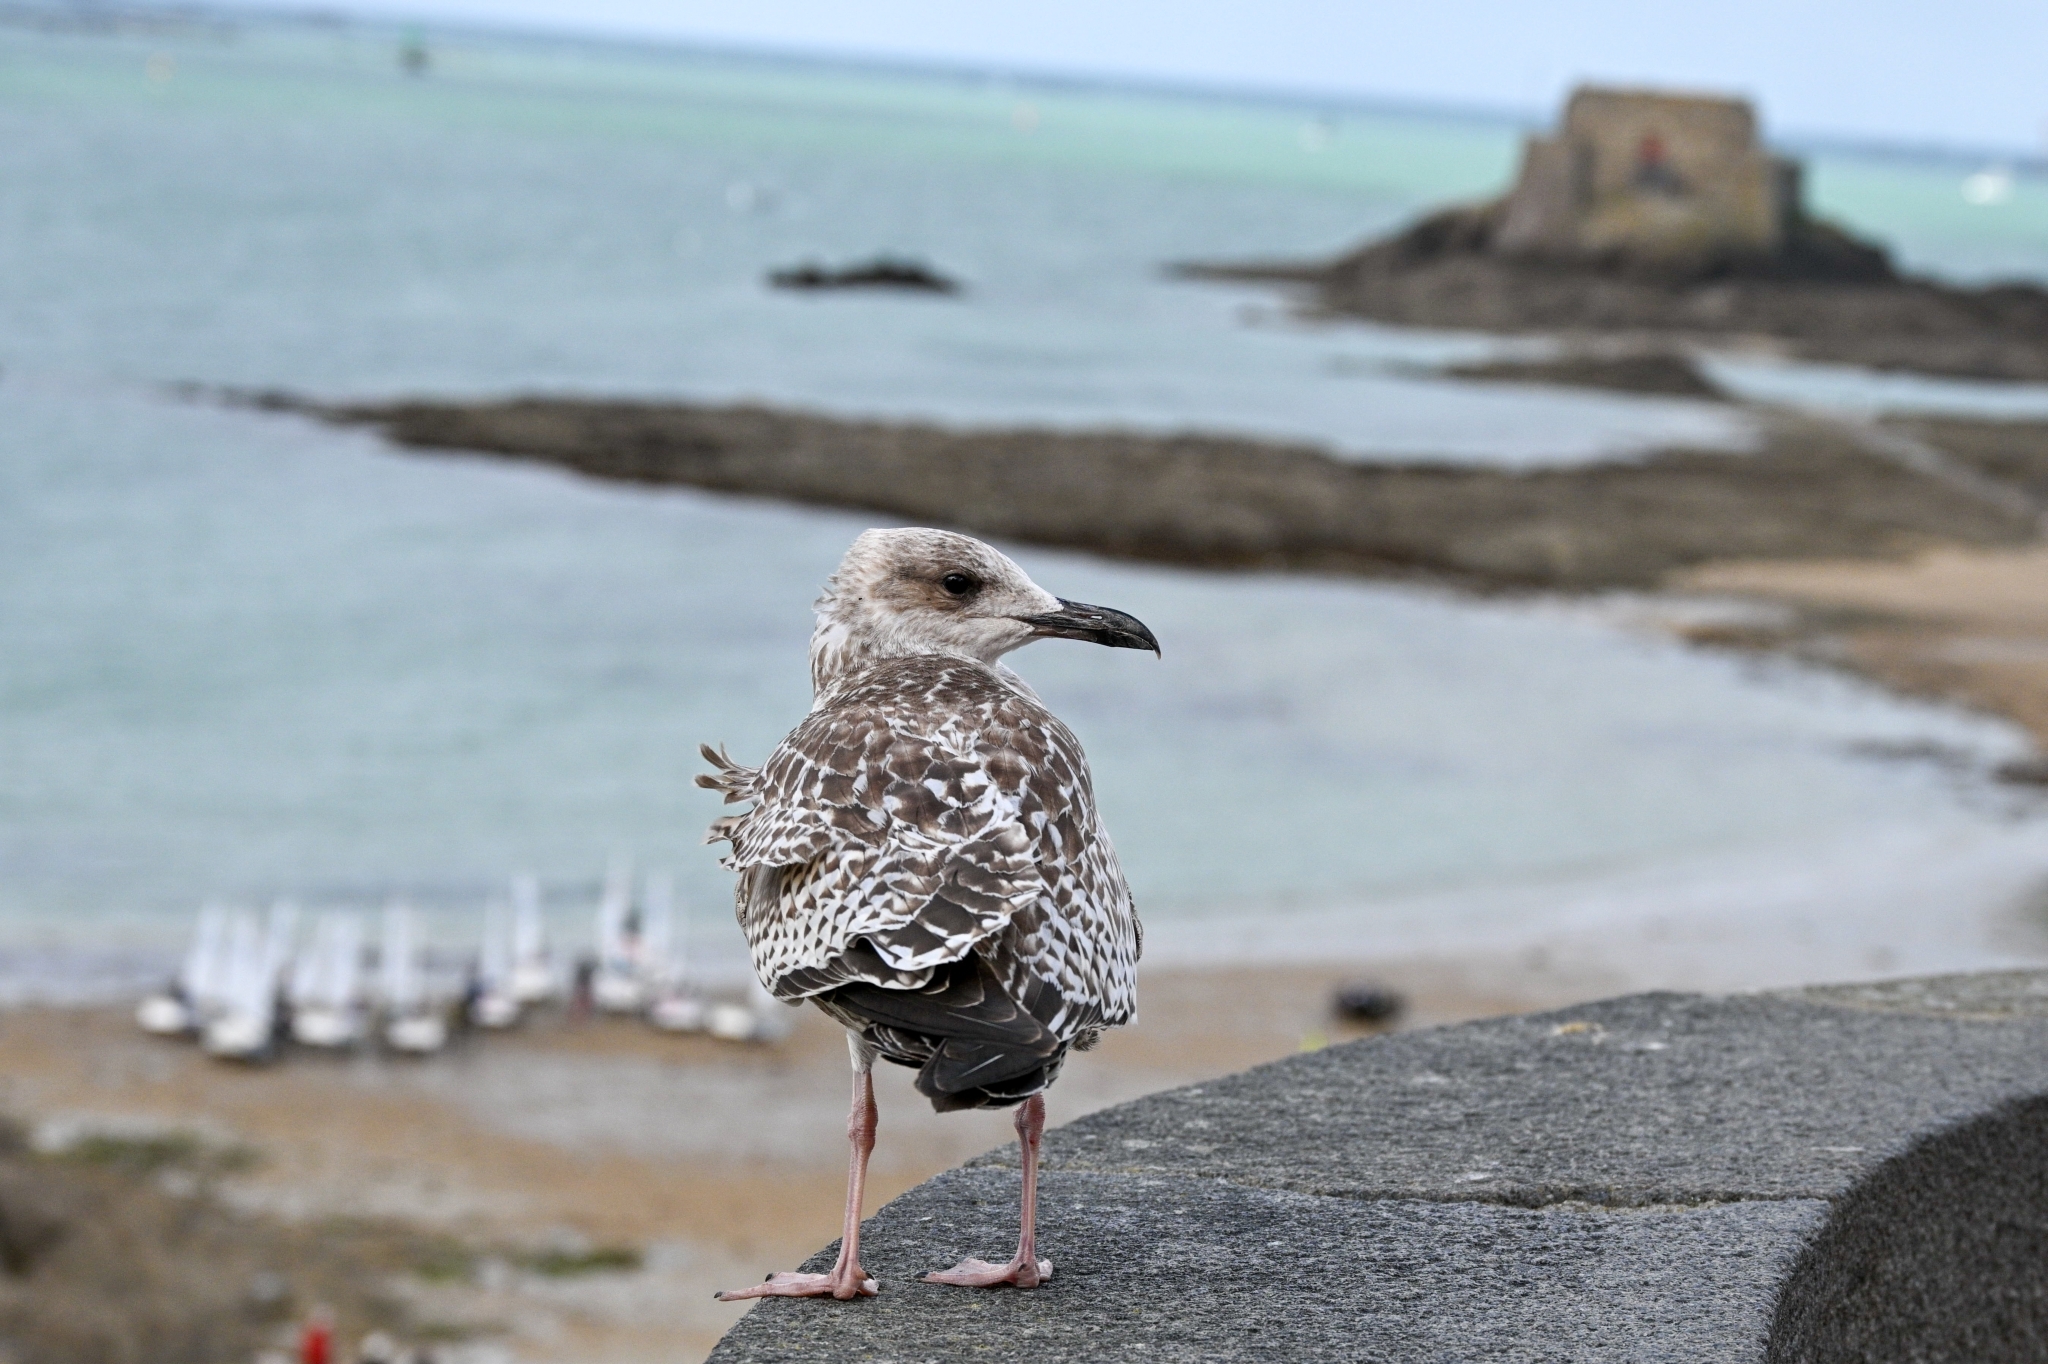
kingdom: Animalia
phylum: Chordata
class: Aves
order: Charadriiformes
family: Laridae
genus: Larus
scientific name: Larus argentatus
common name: Herring gull
